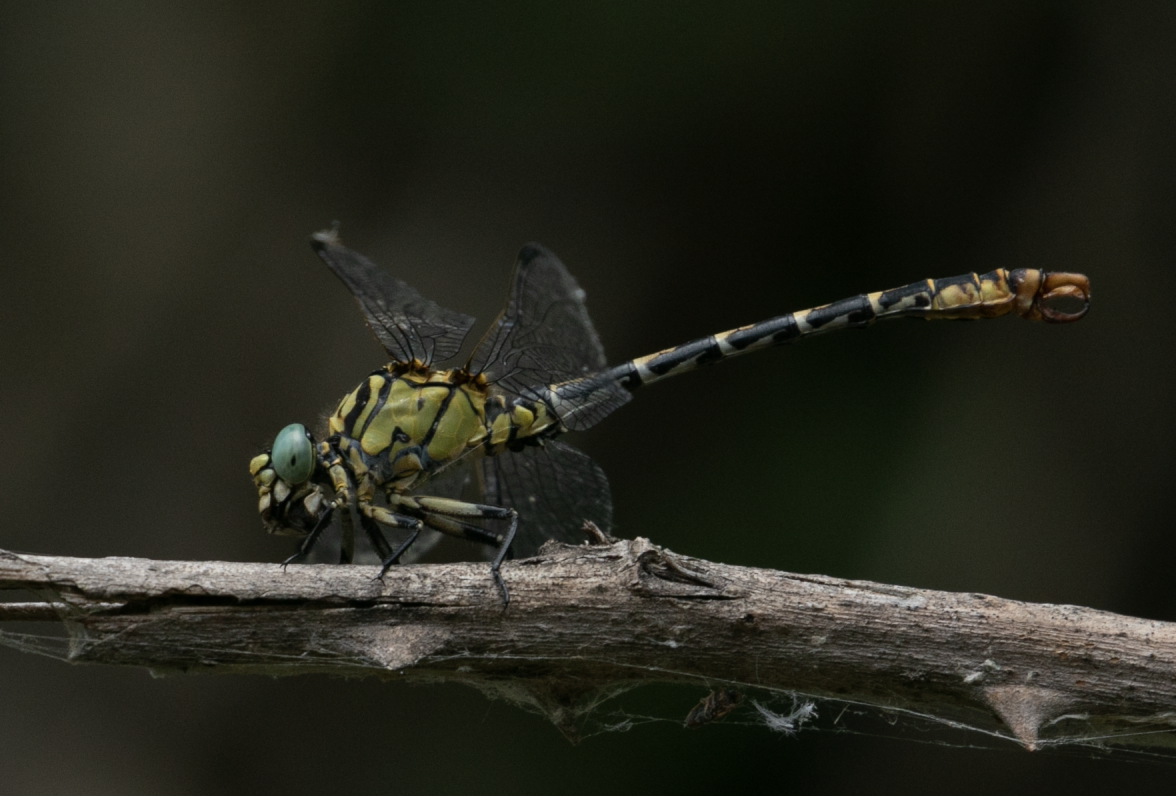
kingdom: Animalia
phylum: Arthropoda
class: Insecta
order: Odonata
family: Gomphidae
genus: Onychogomphus
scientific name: Onychogomphus forcipatus
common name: Small pincertail
